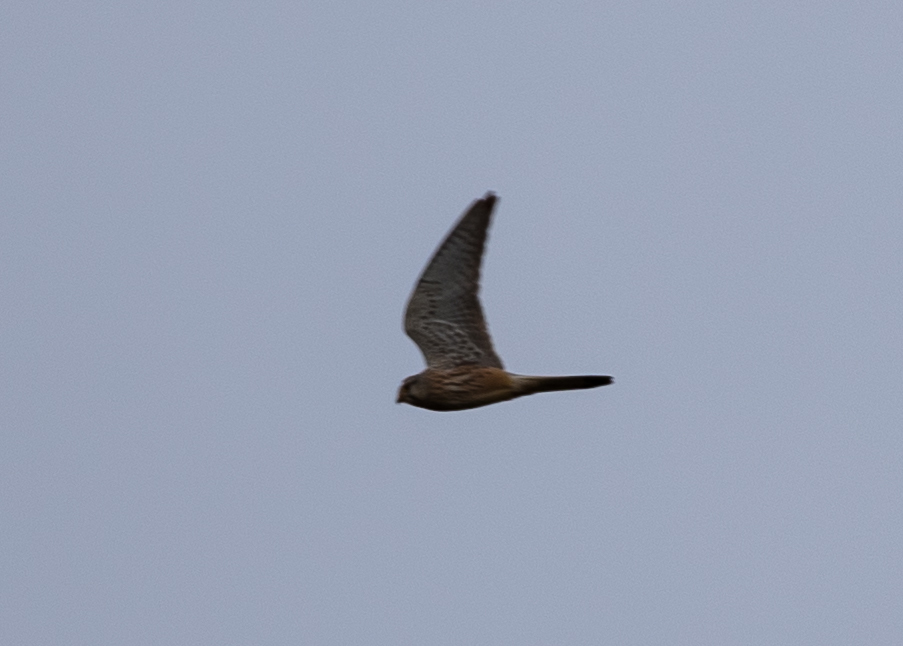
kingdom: Animalia
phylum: Chordata
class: Aves
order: Falconiformes
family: Falconidae
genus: Falco
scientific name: Falco tinnunculus
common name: Common kestrel
